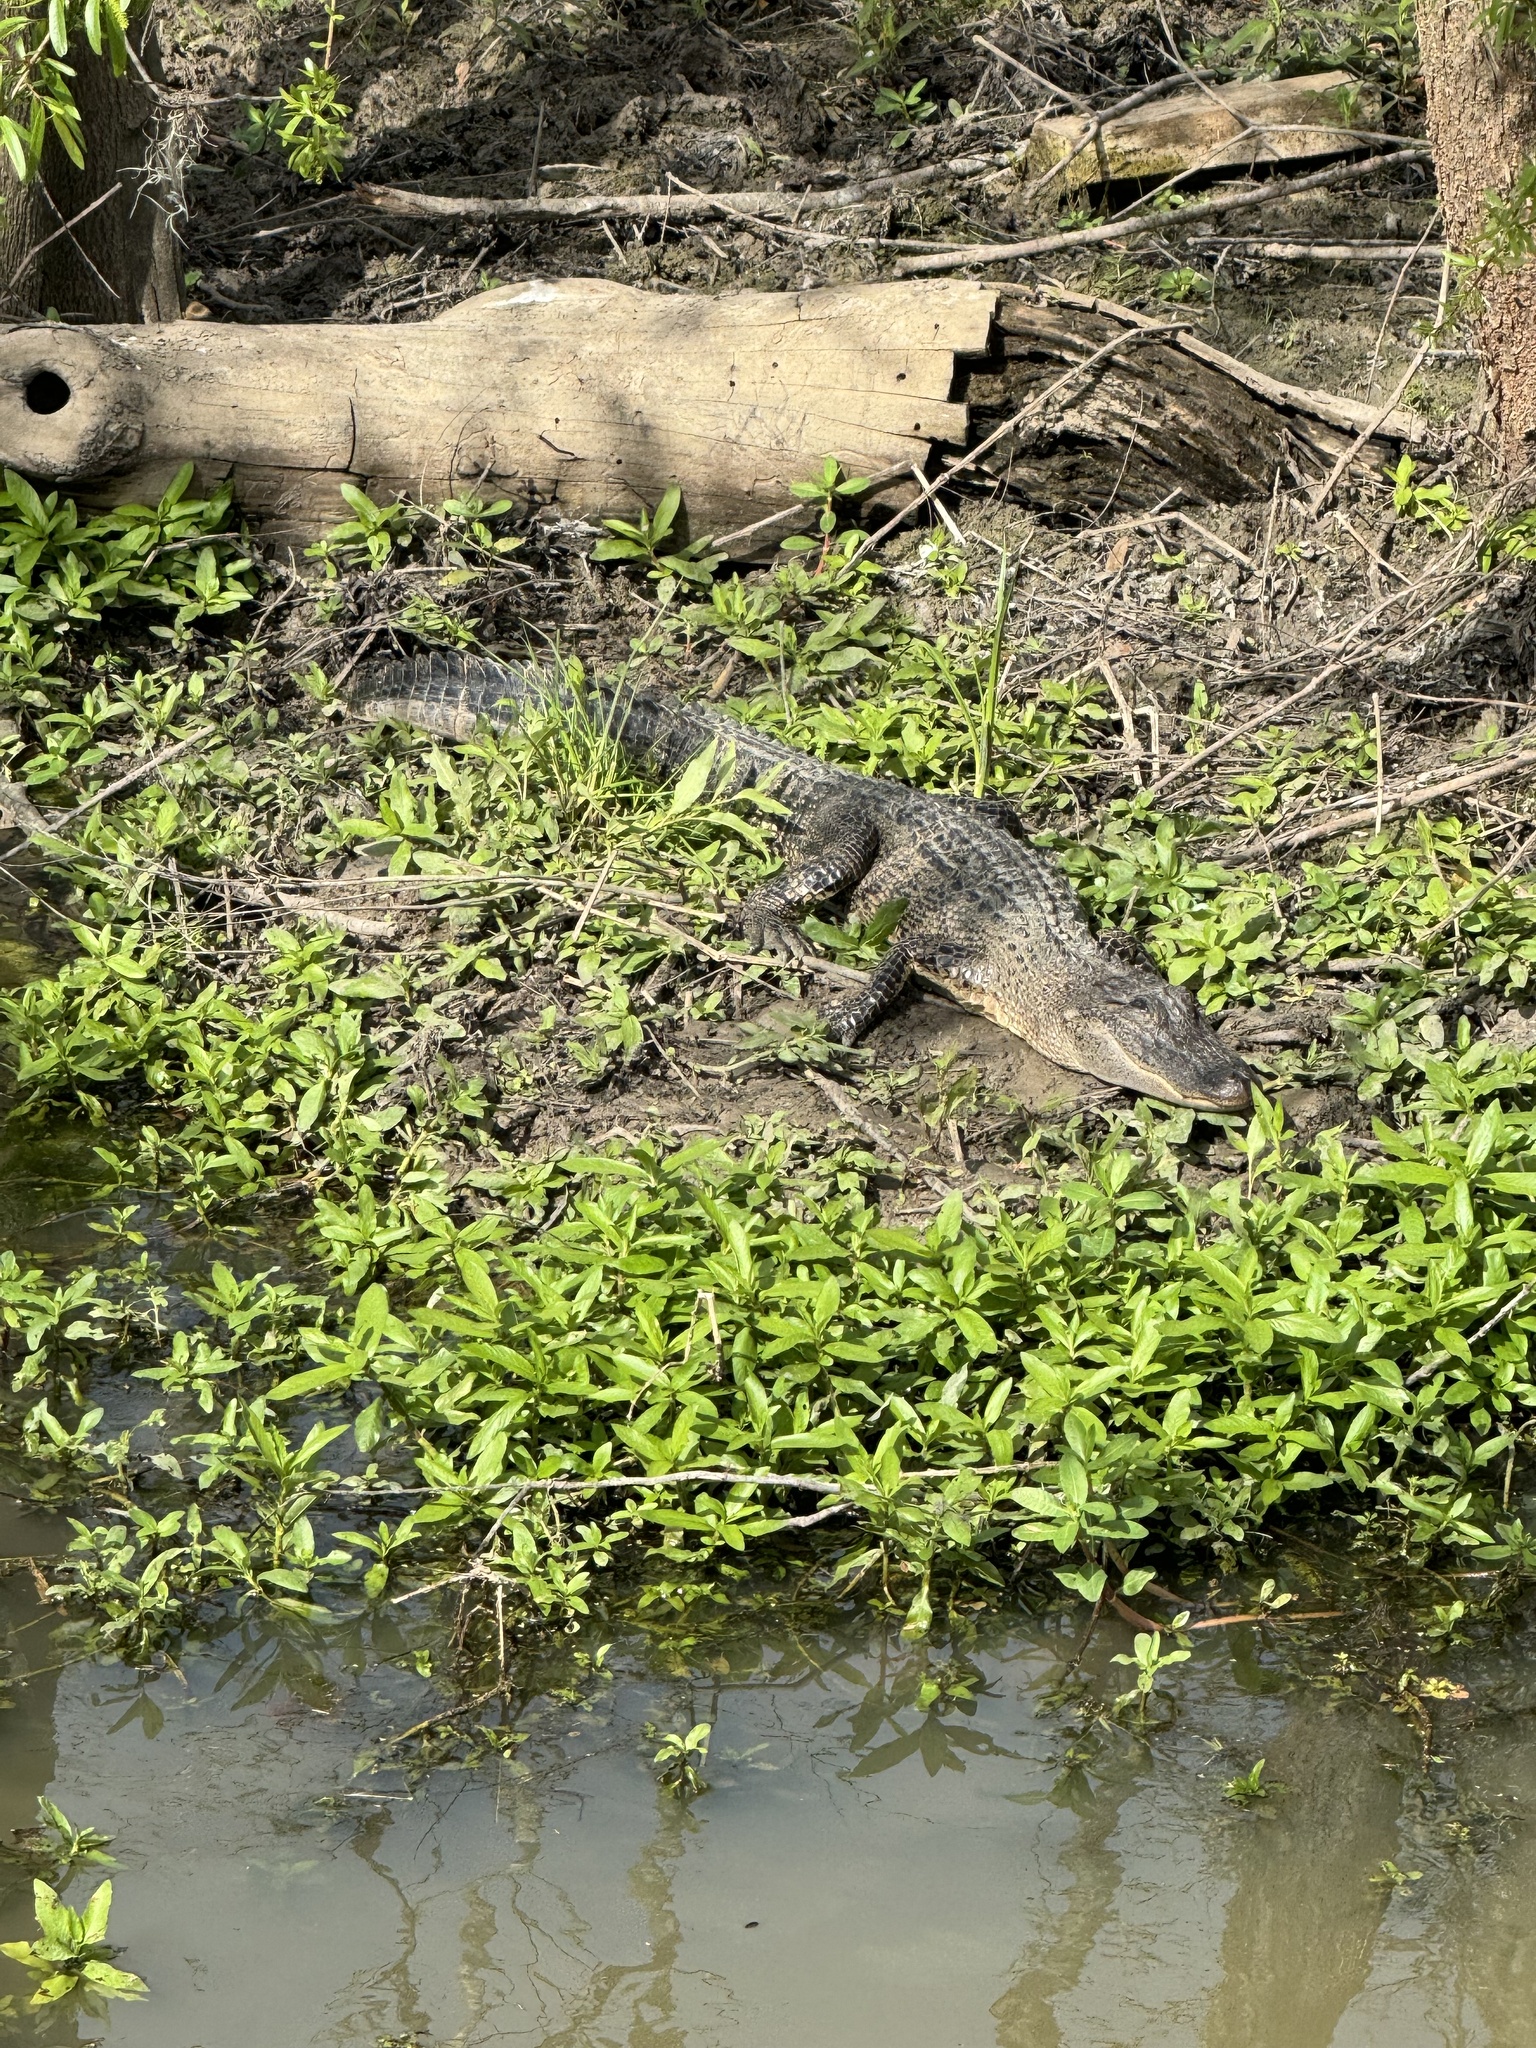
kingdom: Animalia
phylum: Chordata
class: Crocodylia
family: Alligatoridae
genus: Alligator
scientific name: Alligator mississippiensis
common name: American alligator
